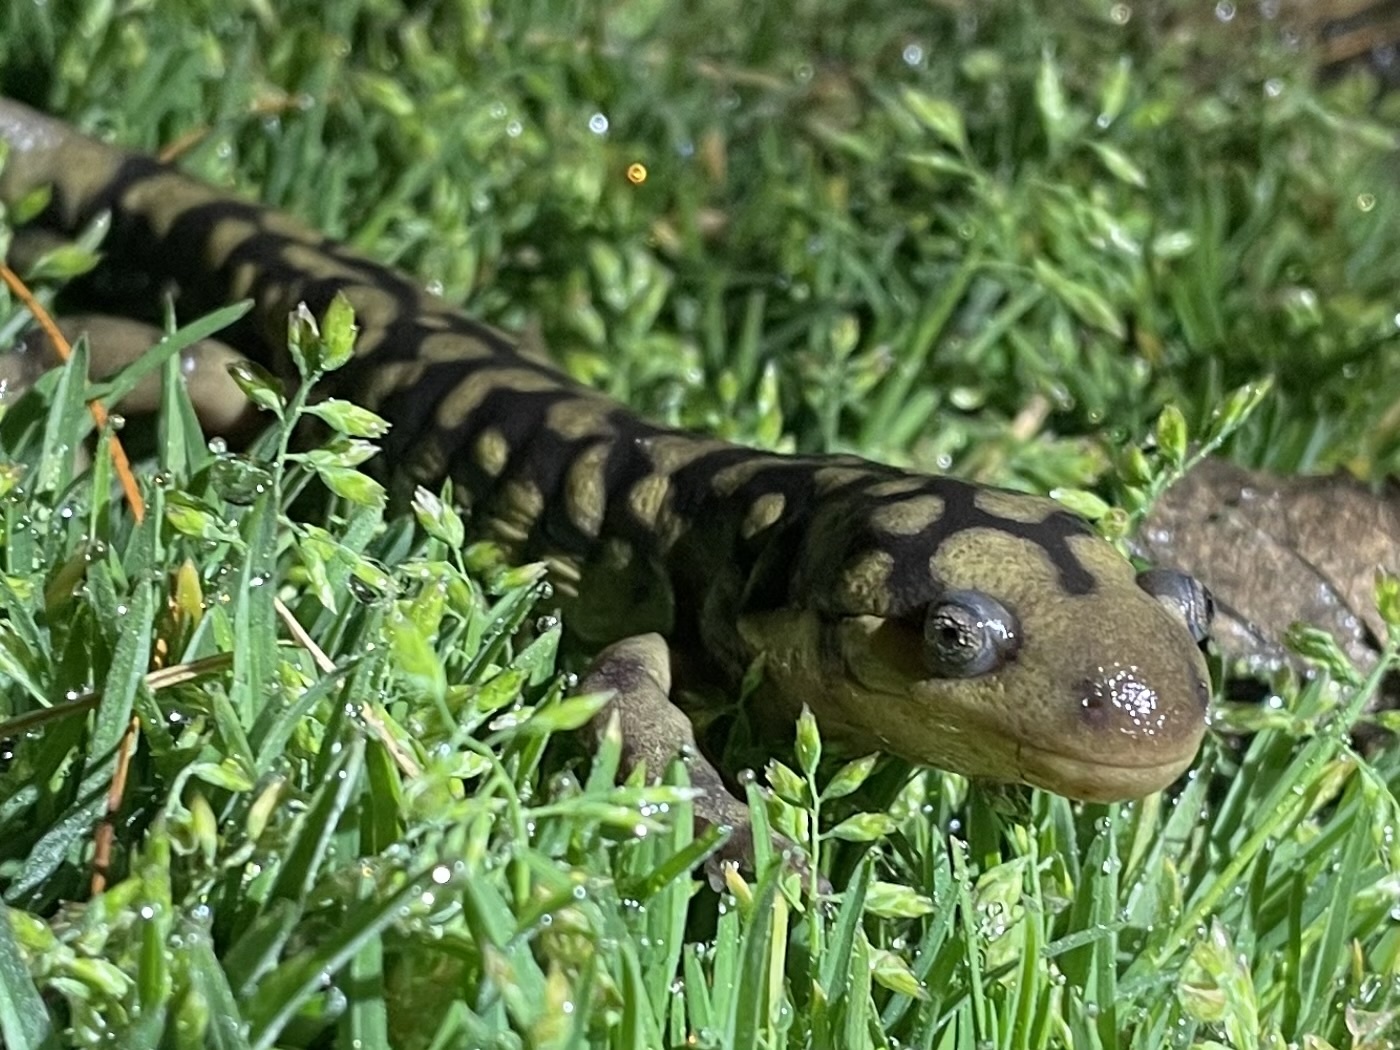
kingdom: Animalia
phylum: Chordata
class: Amphibia
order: Caudata
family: Ambystomatidae
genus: Ambystoma
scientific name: Ambystoma tigrinum
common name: Tiger salamander
